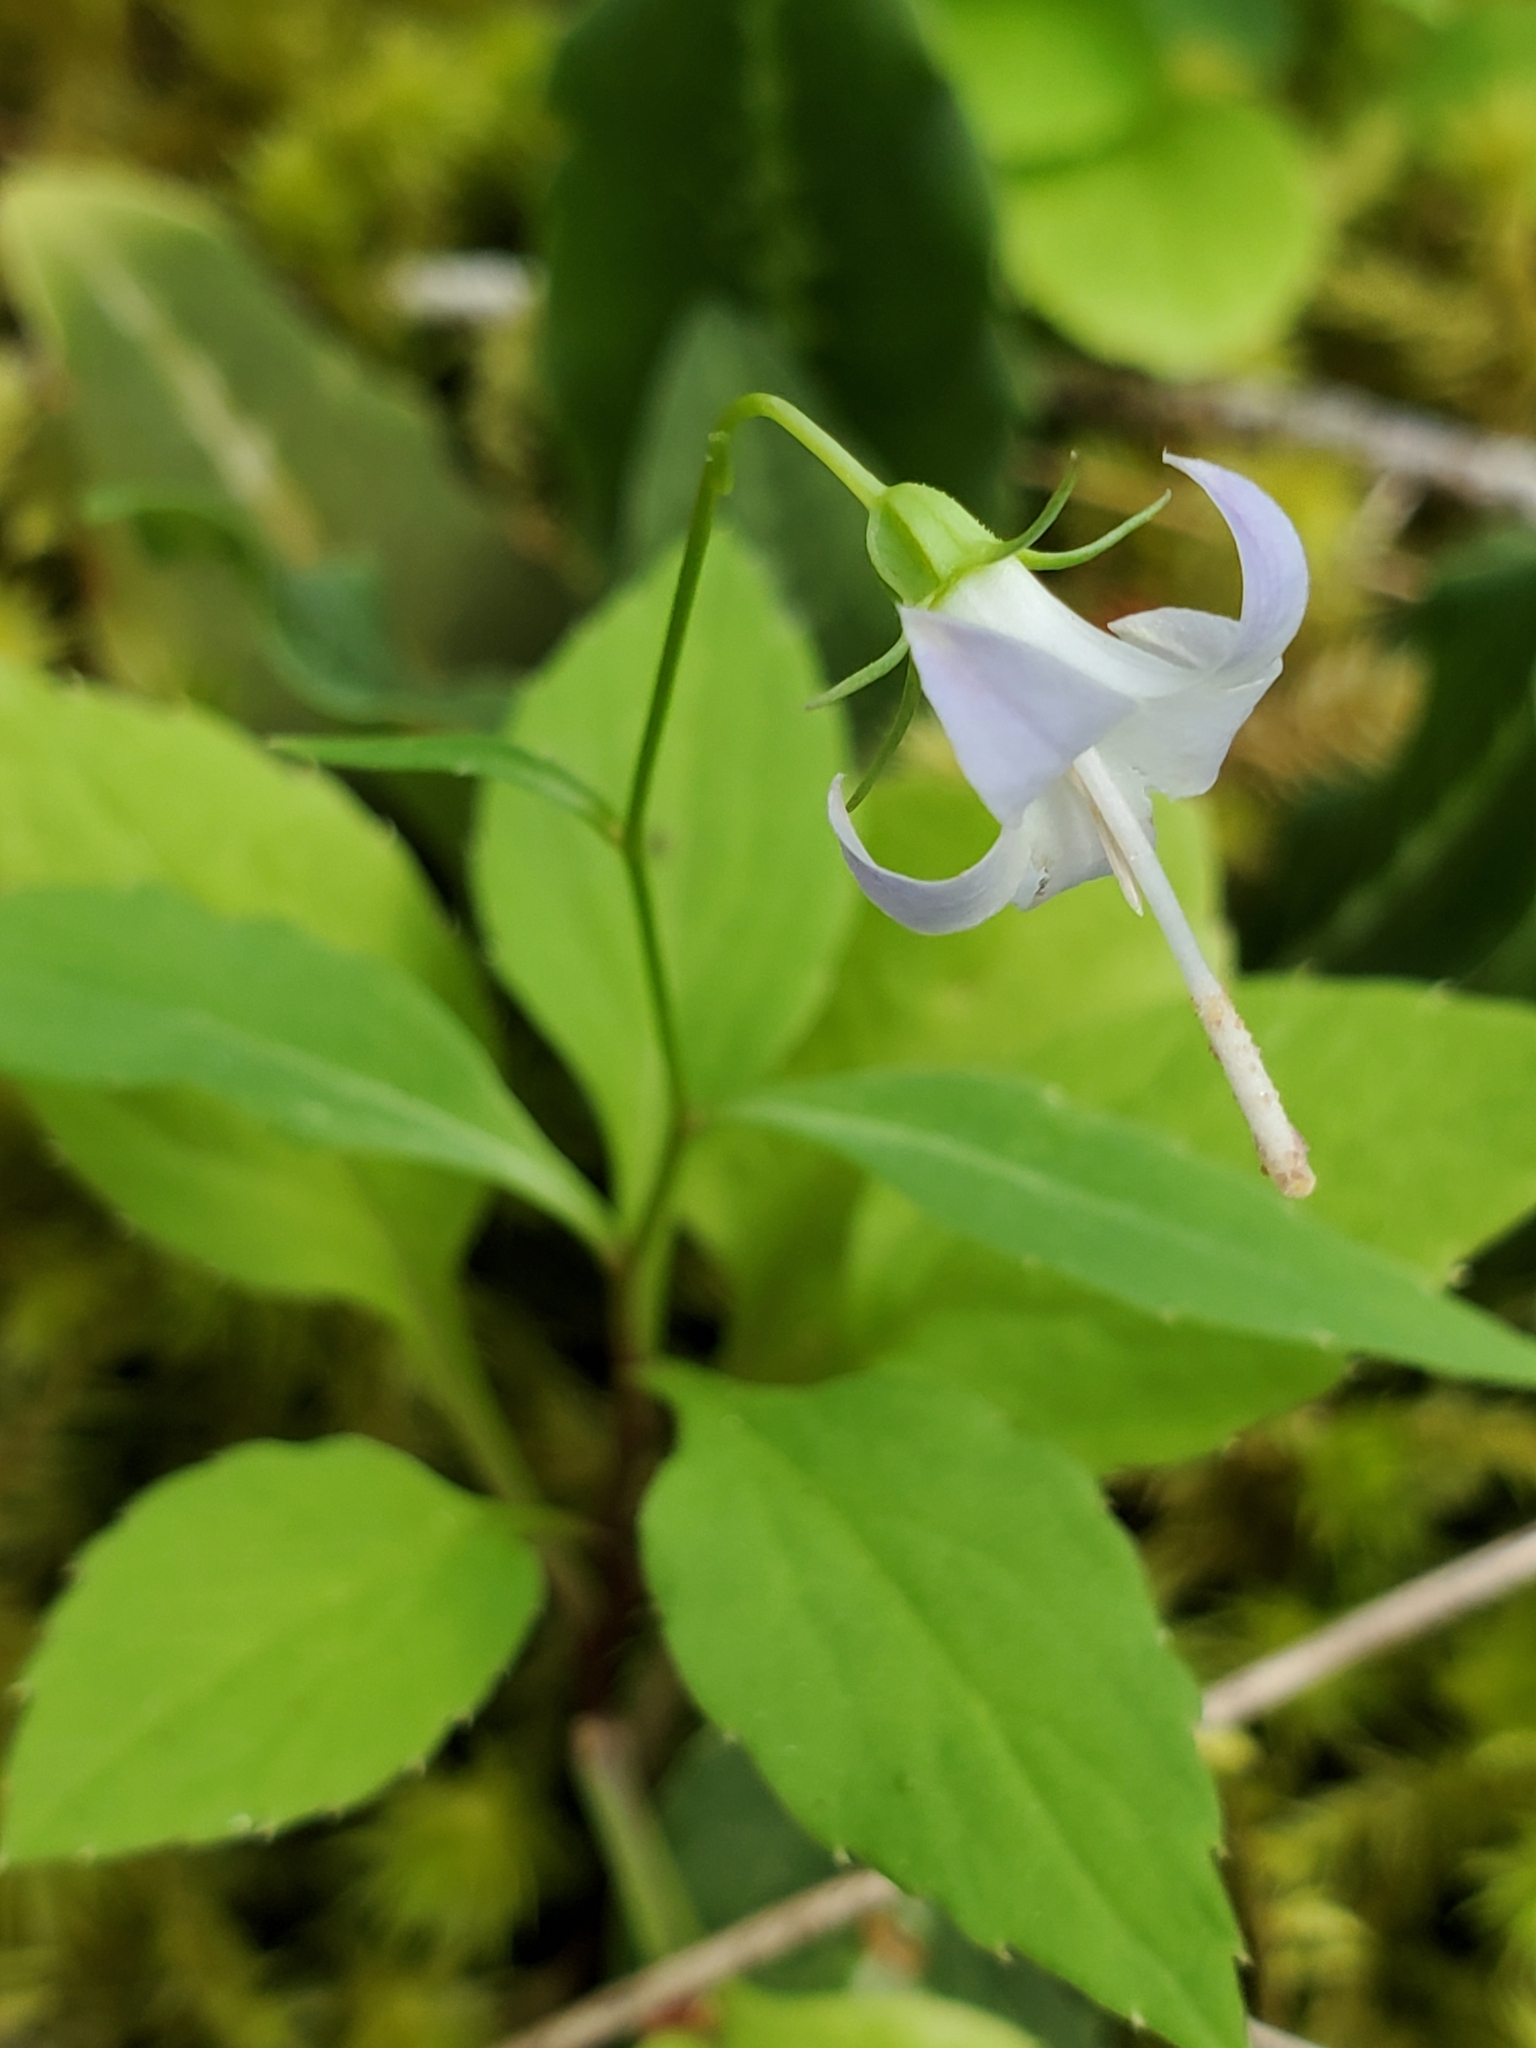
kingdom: Plantae
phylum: Tracheophyta
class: Magnoliopsida
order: Asterales
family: Campanulaceae
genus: Campanula
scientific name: Campanula scouleri
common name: Scouler's harebell
